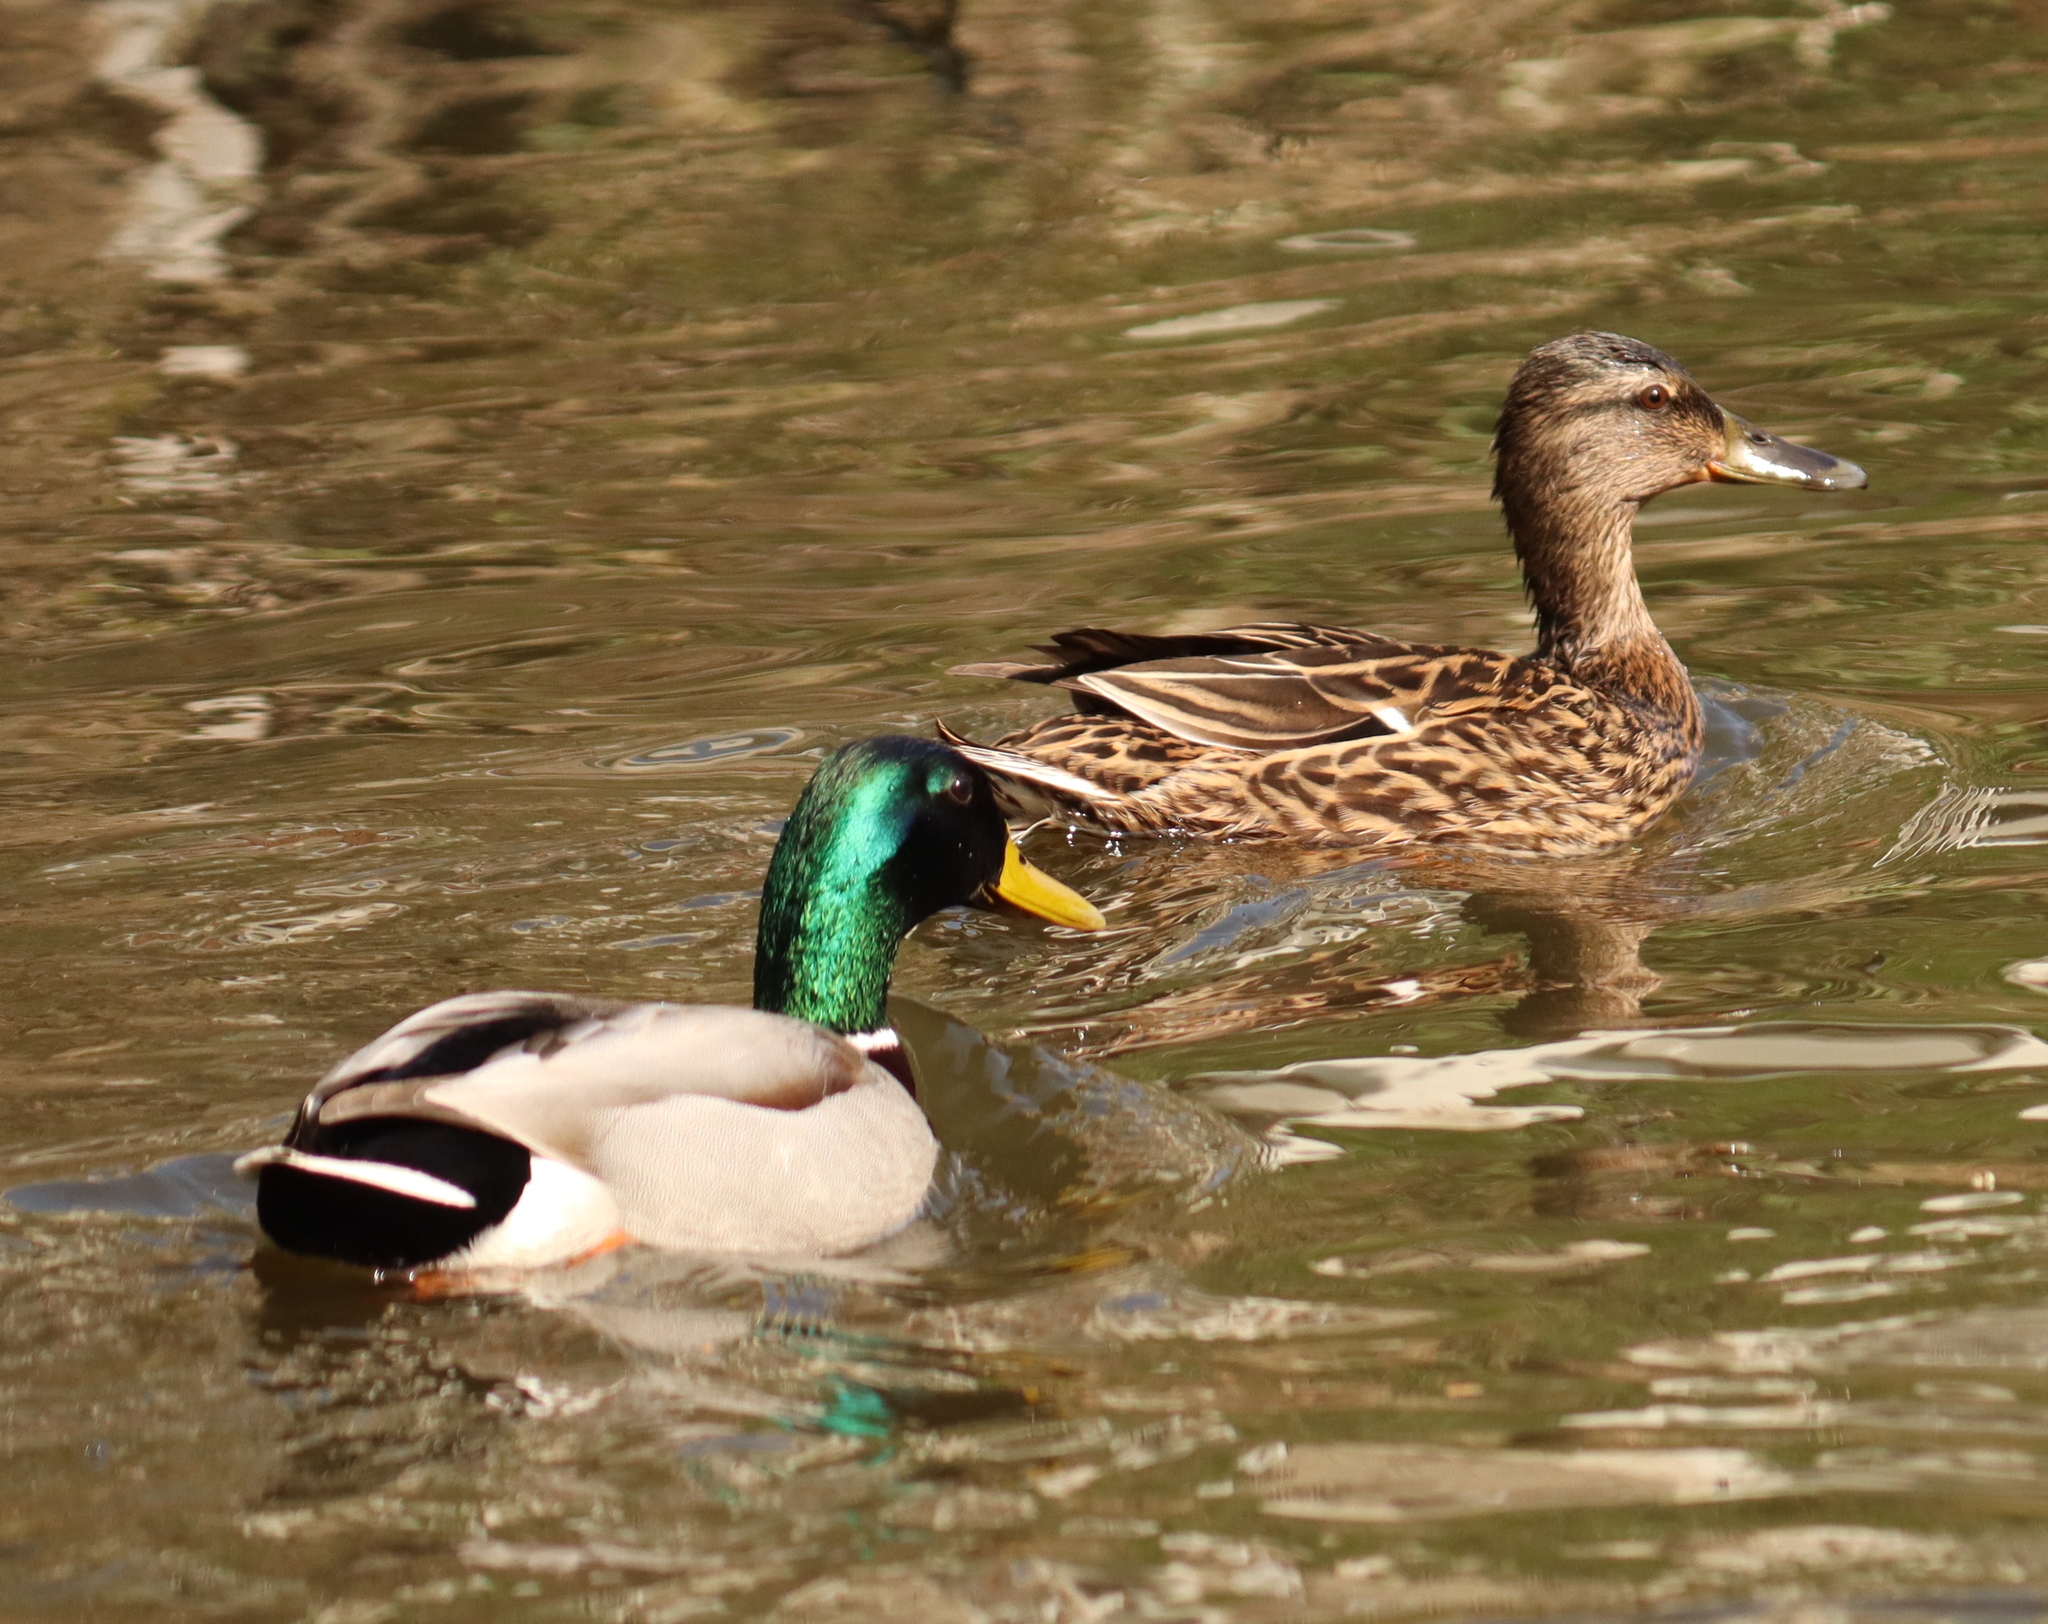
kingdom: Animalia
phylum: Chordata
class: Aves
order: Anseriformes
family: Anatidae
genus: Anas
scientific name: Anas platyrhynchos
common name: Mallard
